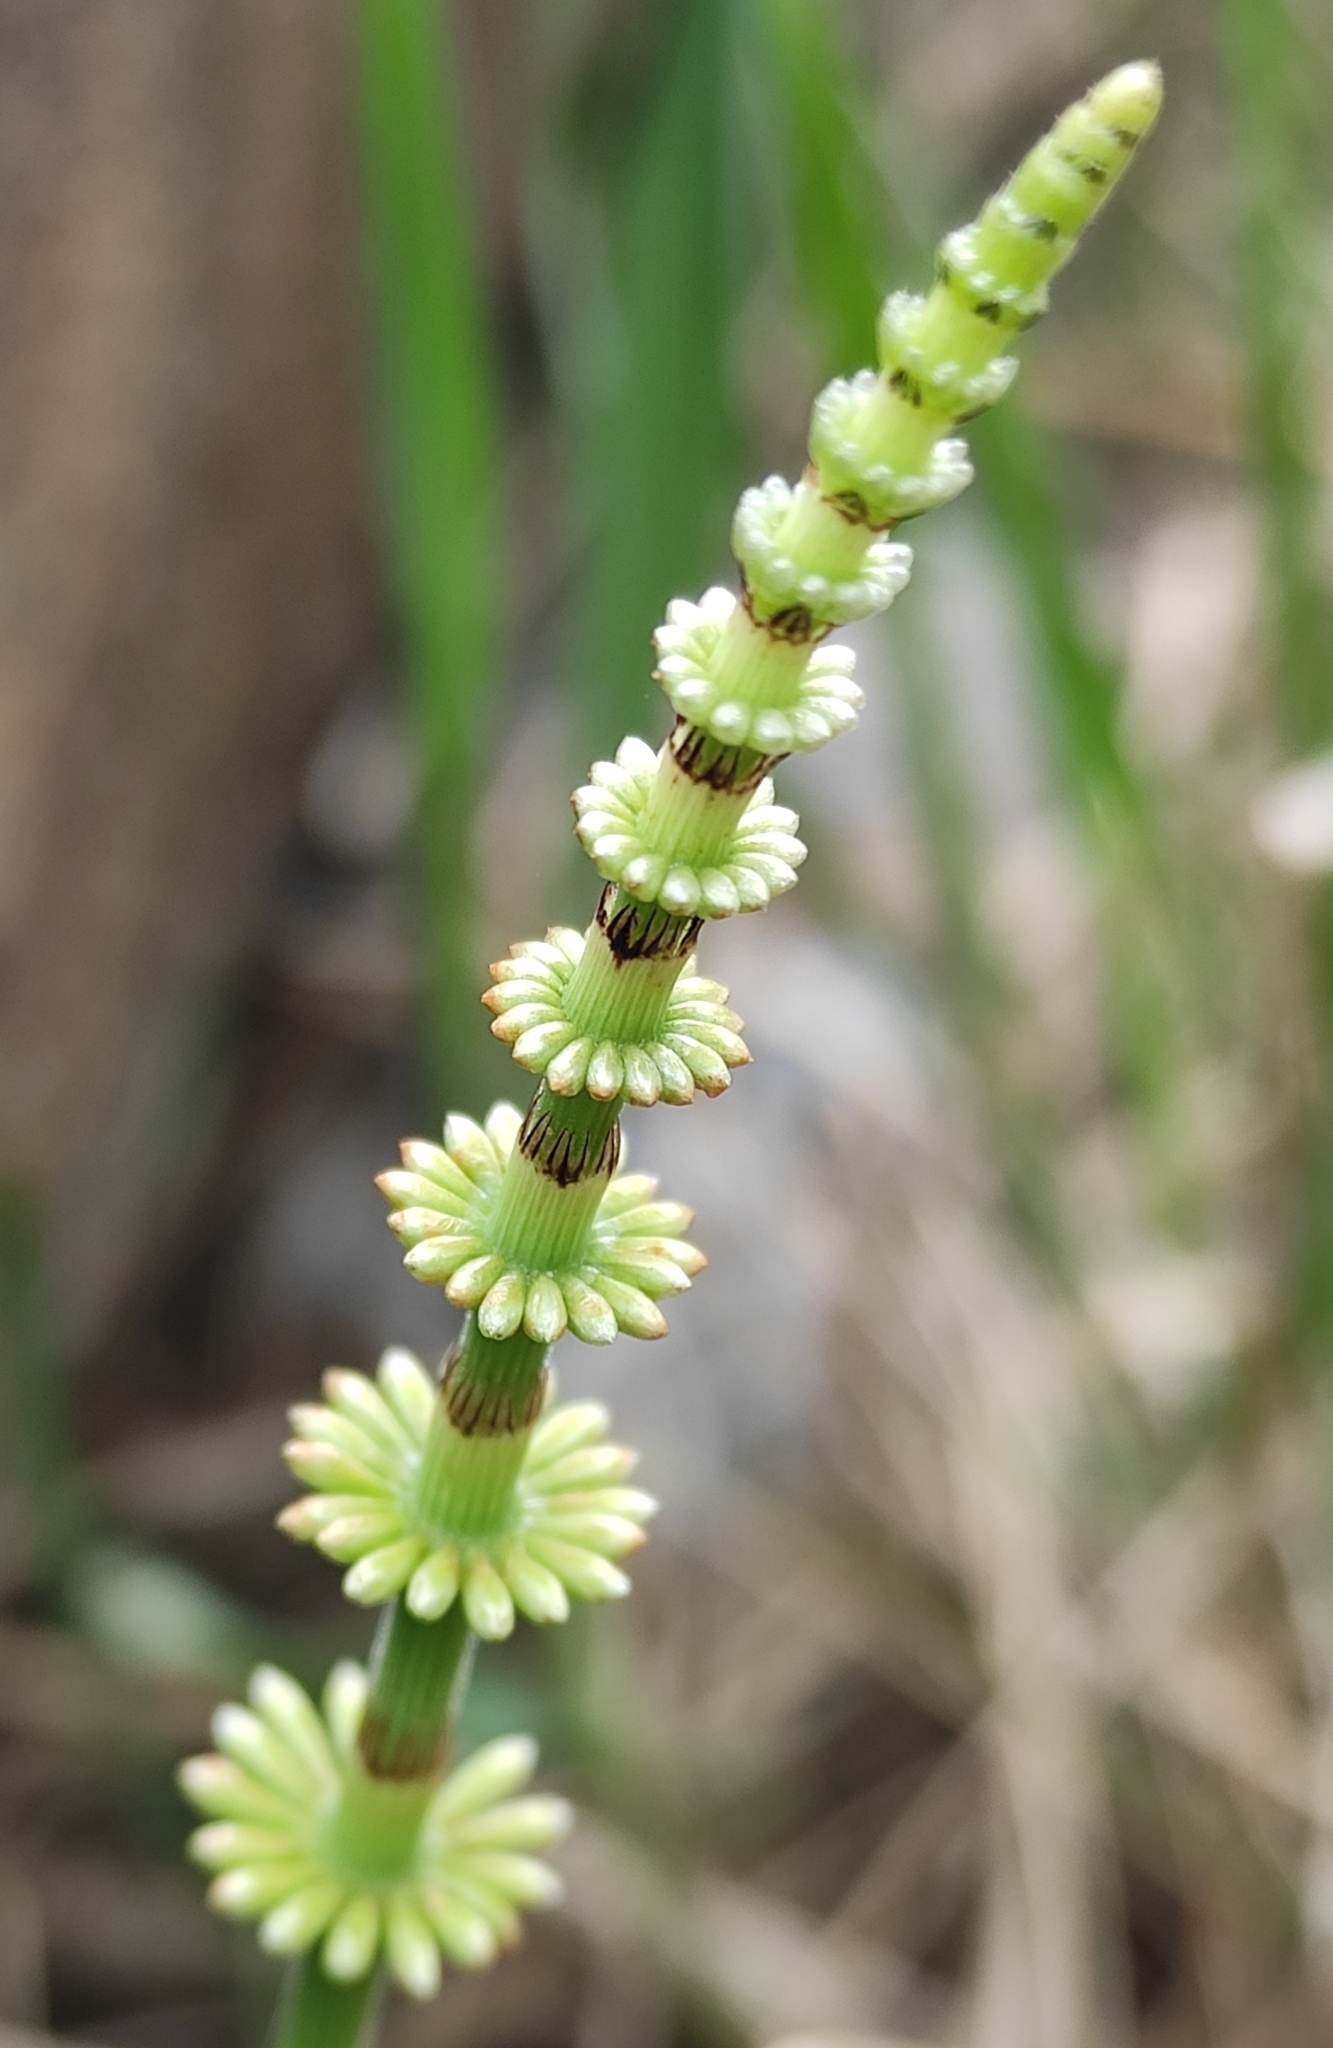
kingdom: Plantae
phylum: Tracheophyta
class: Polypodiopsida
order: Equisetales
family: Equisetaceae
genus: Equisetum
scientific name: Equisetum pratense
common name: Meadow horsetail
